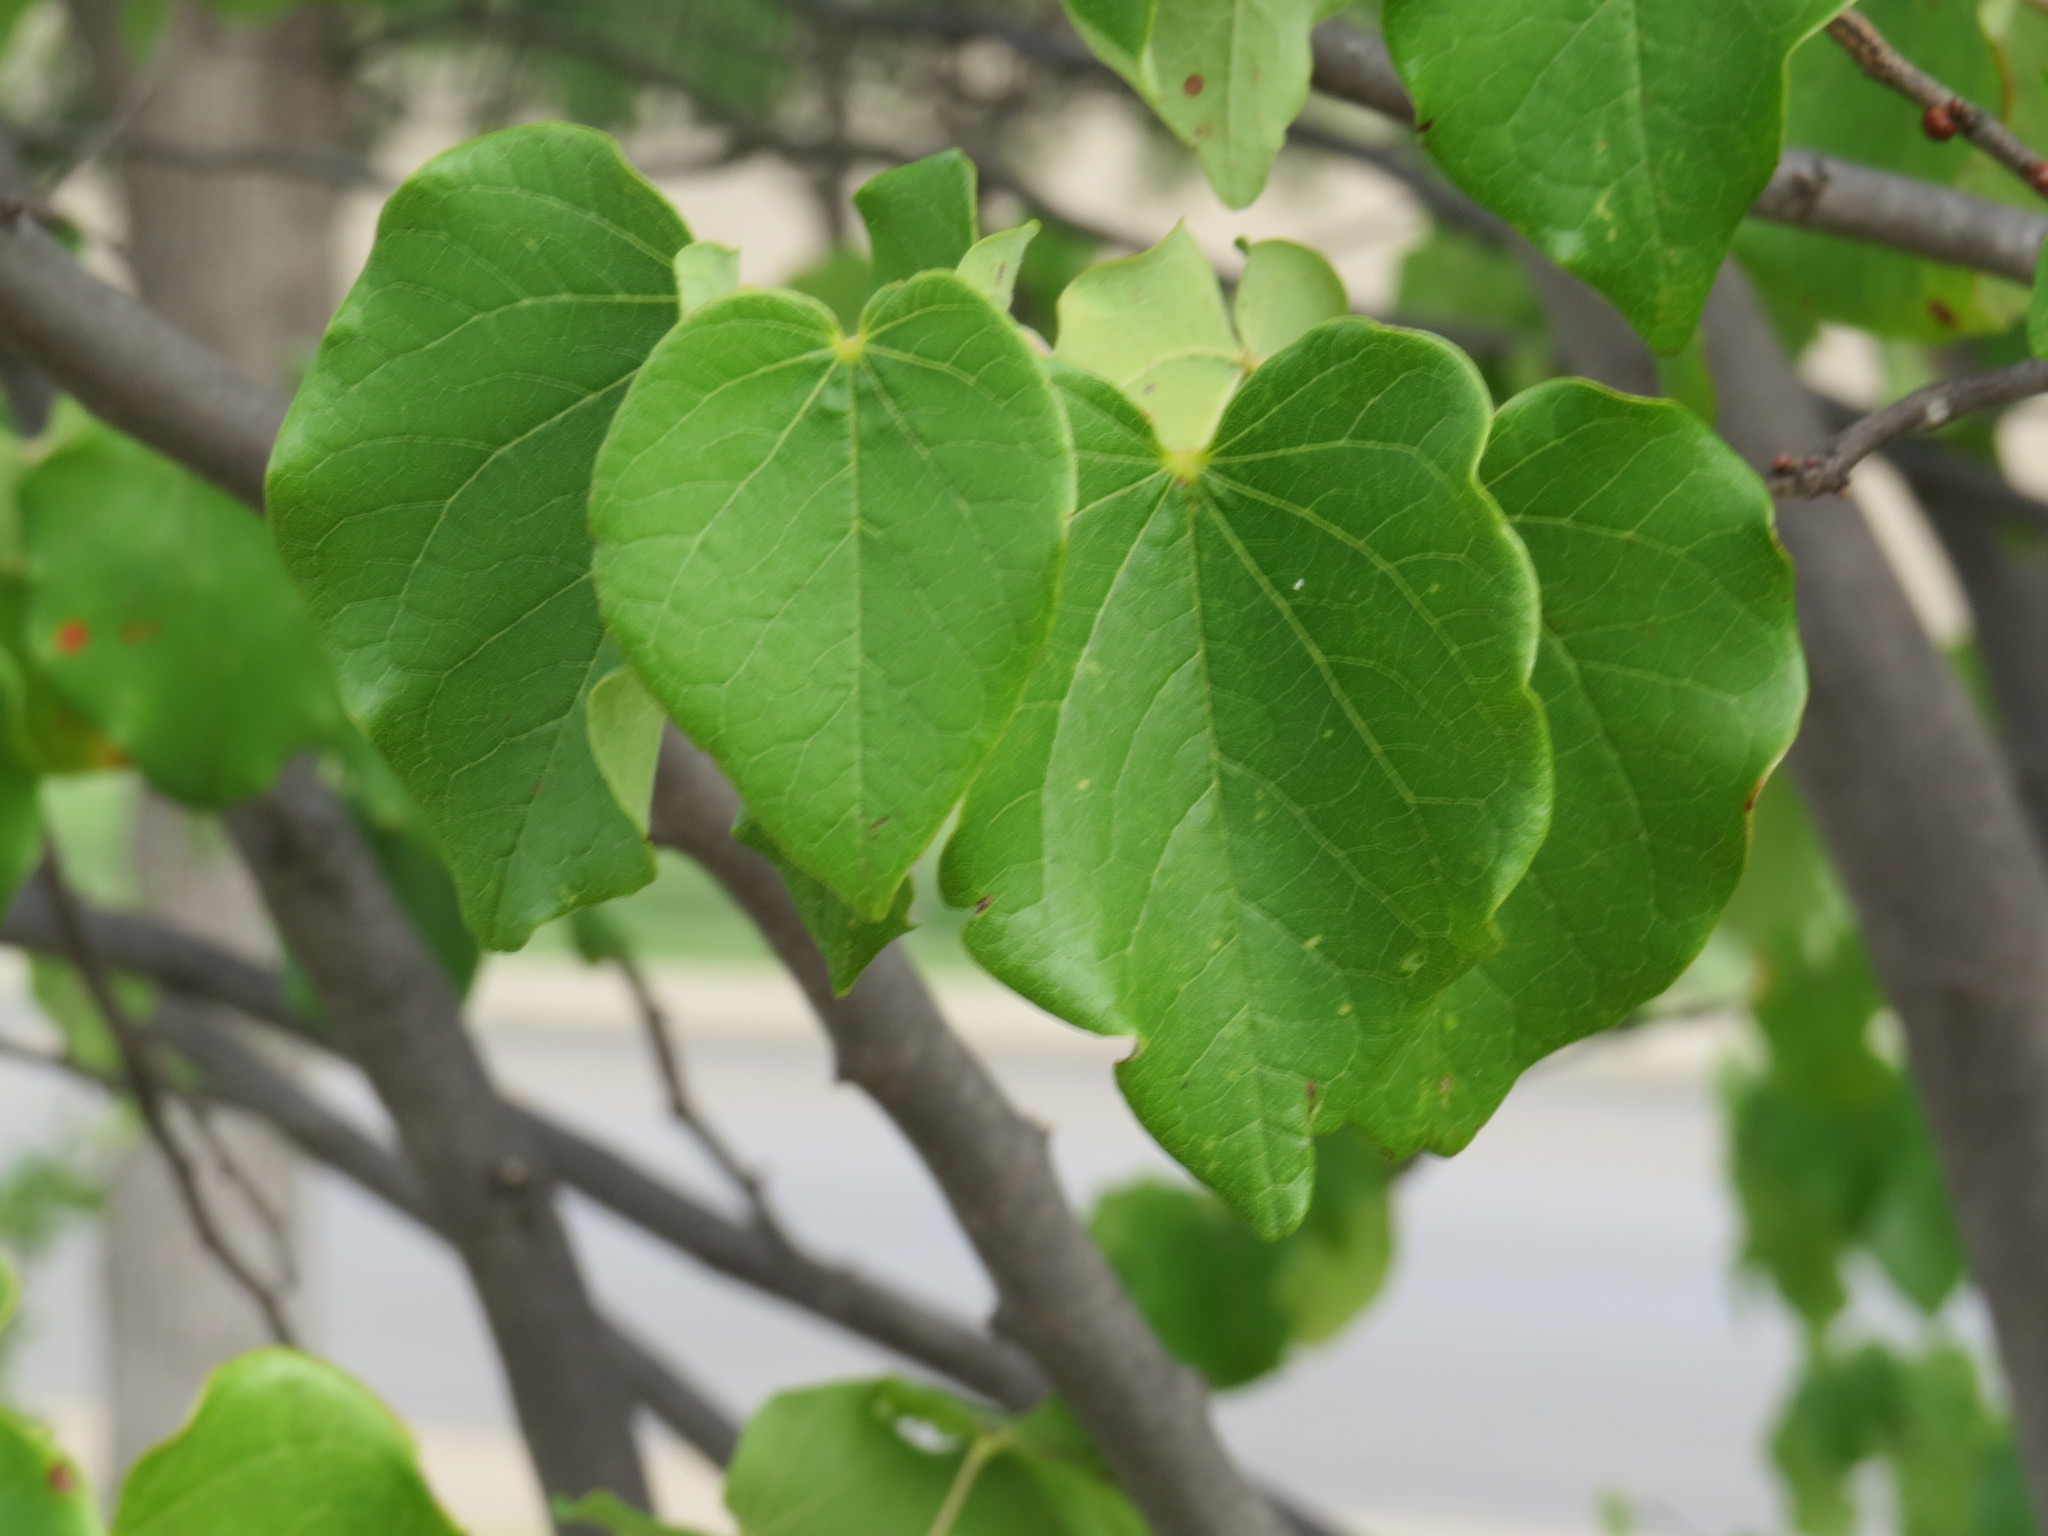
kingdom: Plantae
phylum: Tracheophyta
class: Magnoliopsida
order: Fabales
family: Fabaceae
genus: Cercis
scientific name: Cercis canadensis
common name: Eastern redbud
